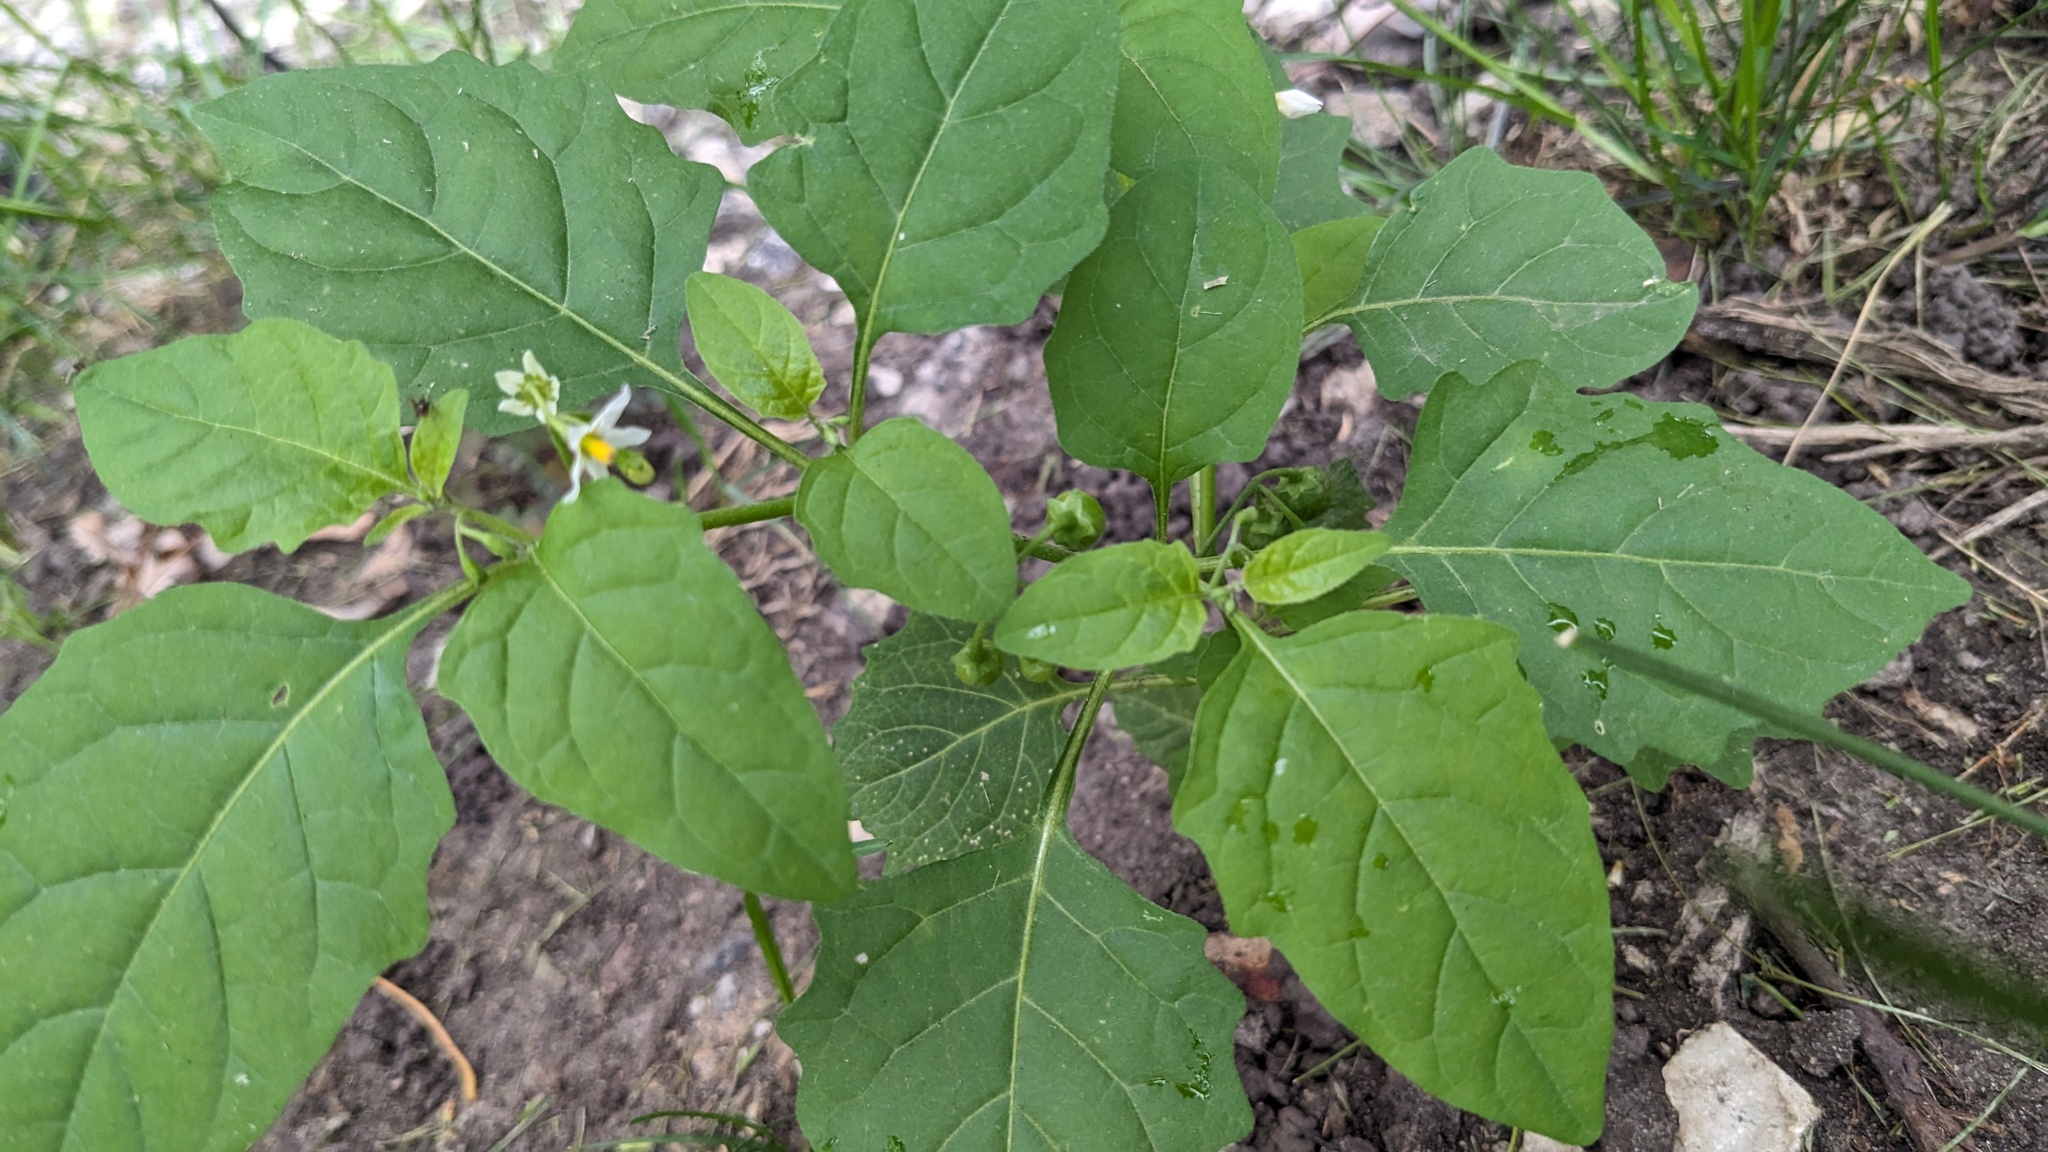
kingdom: Plantae
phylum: Tracheophyta
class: Magnoliopsida
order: Solanales
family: Solanaceae
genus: Solanum
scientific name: Solanum emulans
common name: Eastern black nightshade
